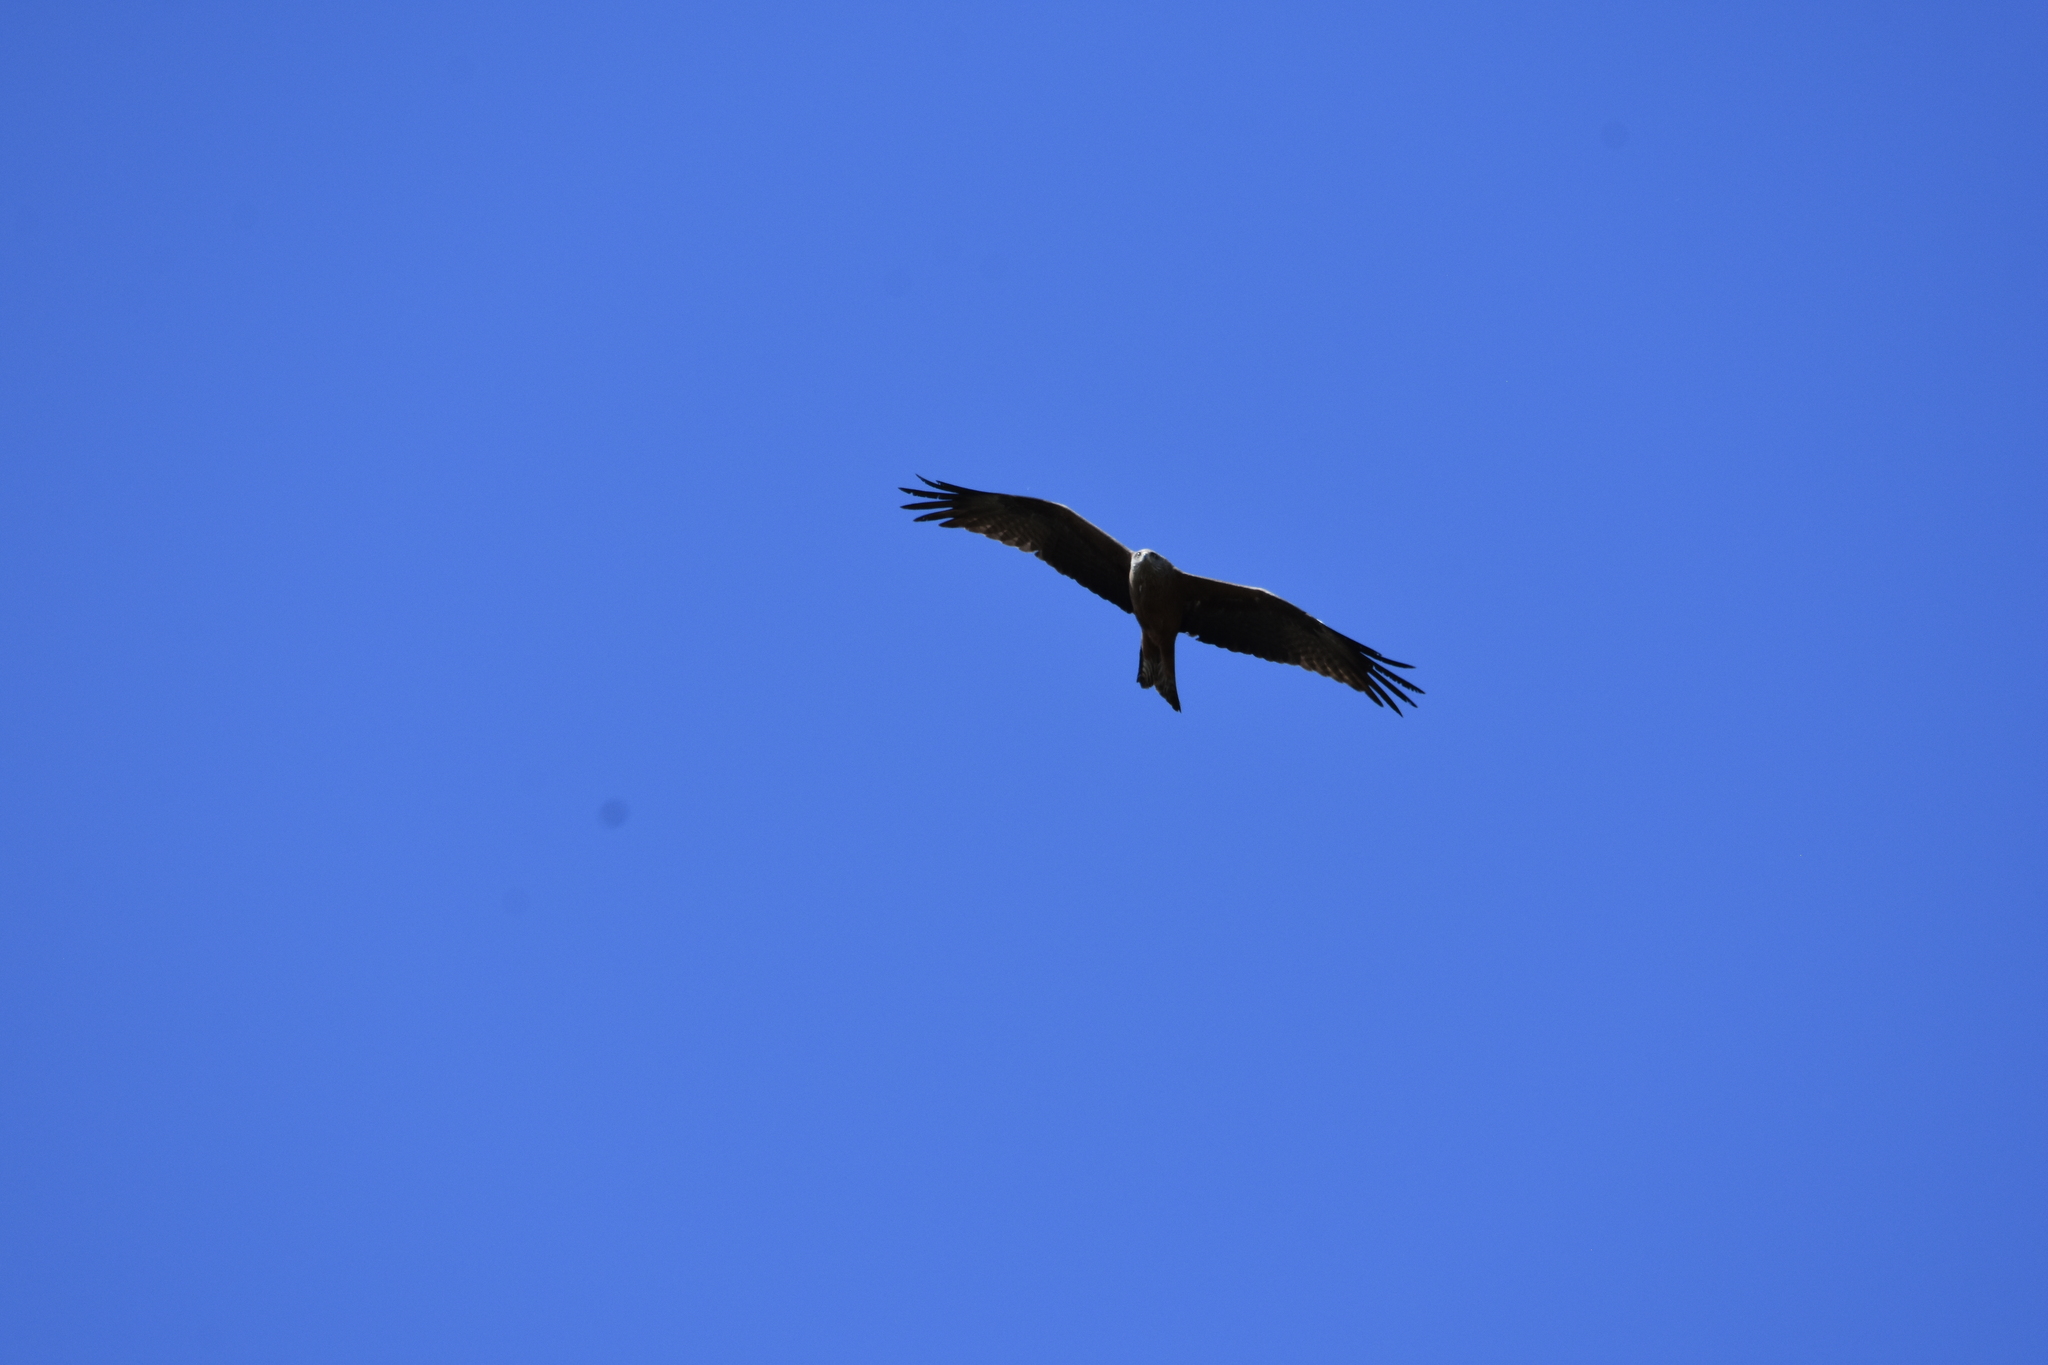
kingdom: Animalia
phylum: Chordata
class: Aves
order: Accipitriformes
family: Accipitridae
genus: Milvus
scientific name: Milvus migrans
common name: Black kite
